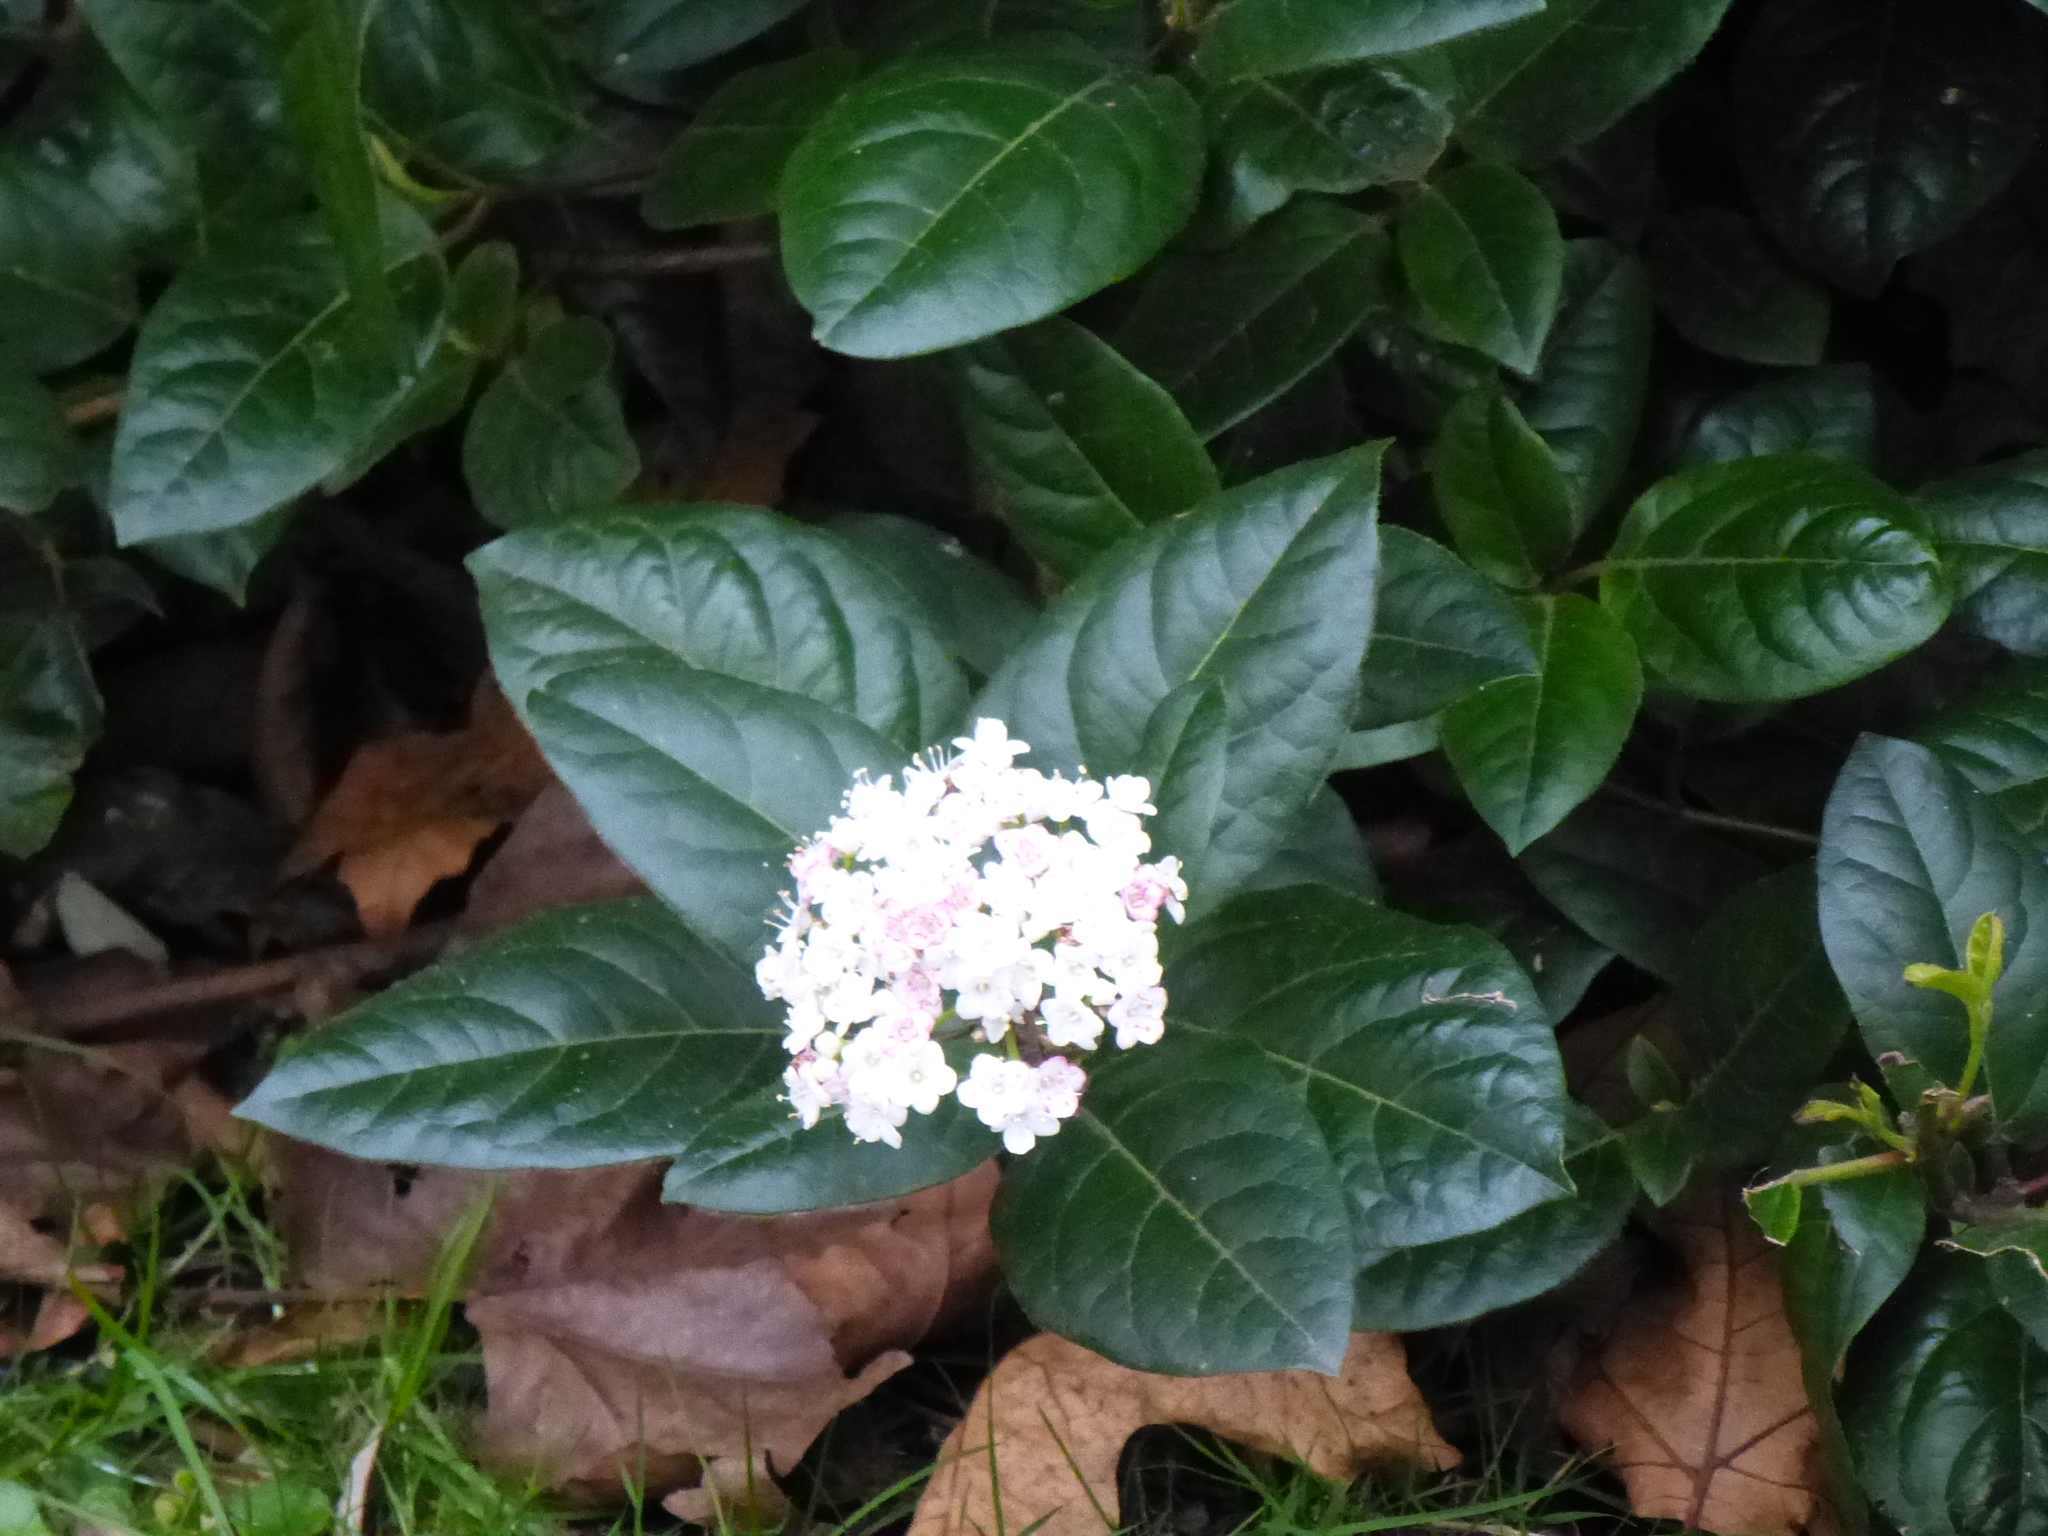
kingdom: Plantae
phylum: Tracheophyta
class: Magnoliopsida
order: Dipsacales
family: Viburnaceae
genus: Viburnum
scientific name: Viburnum tinus
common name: Laurustinus
